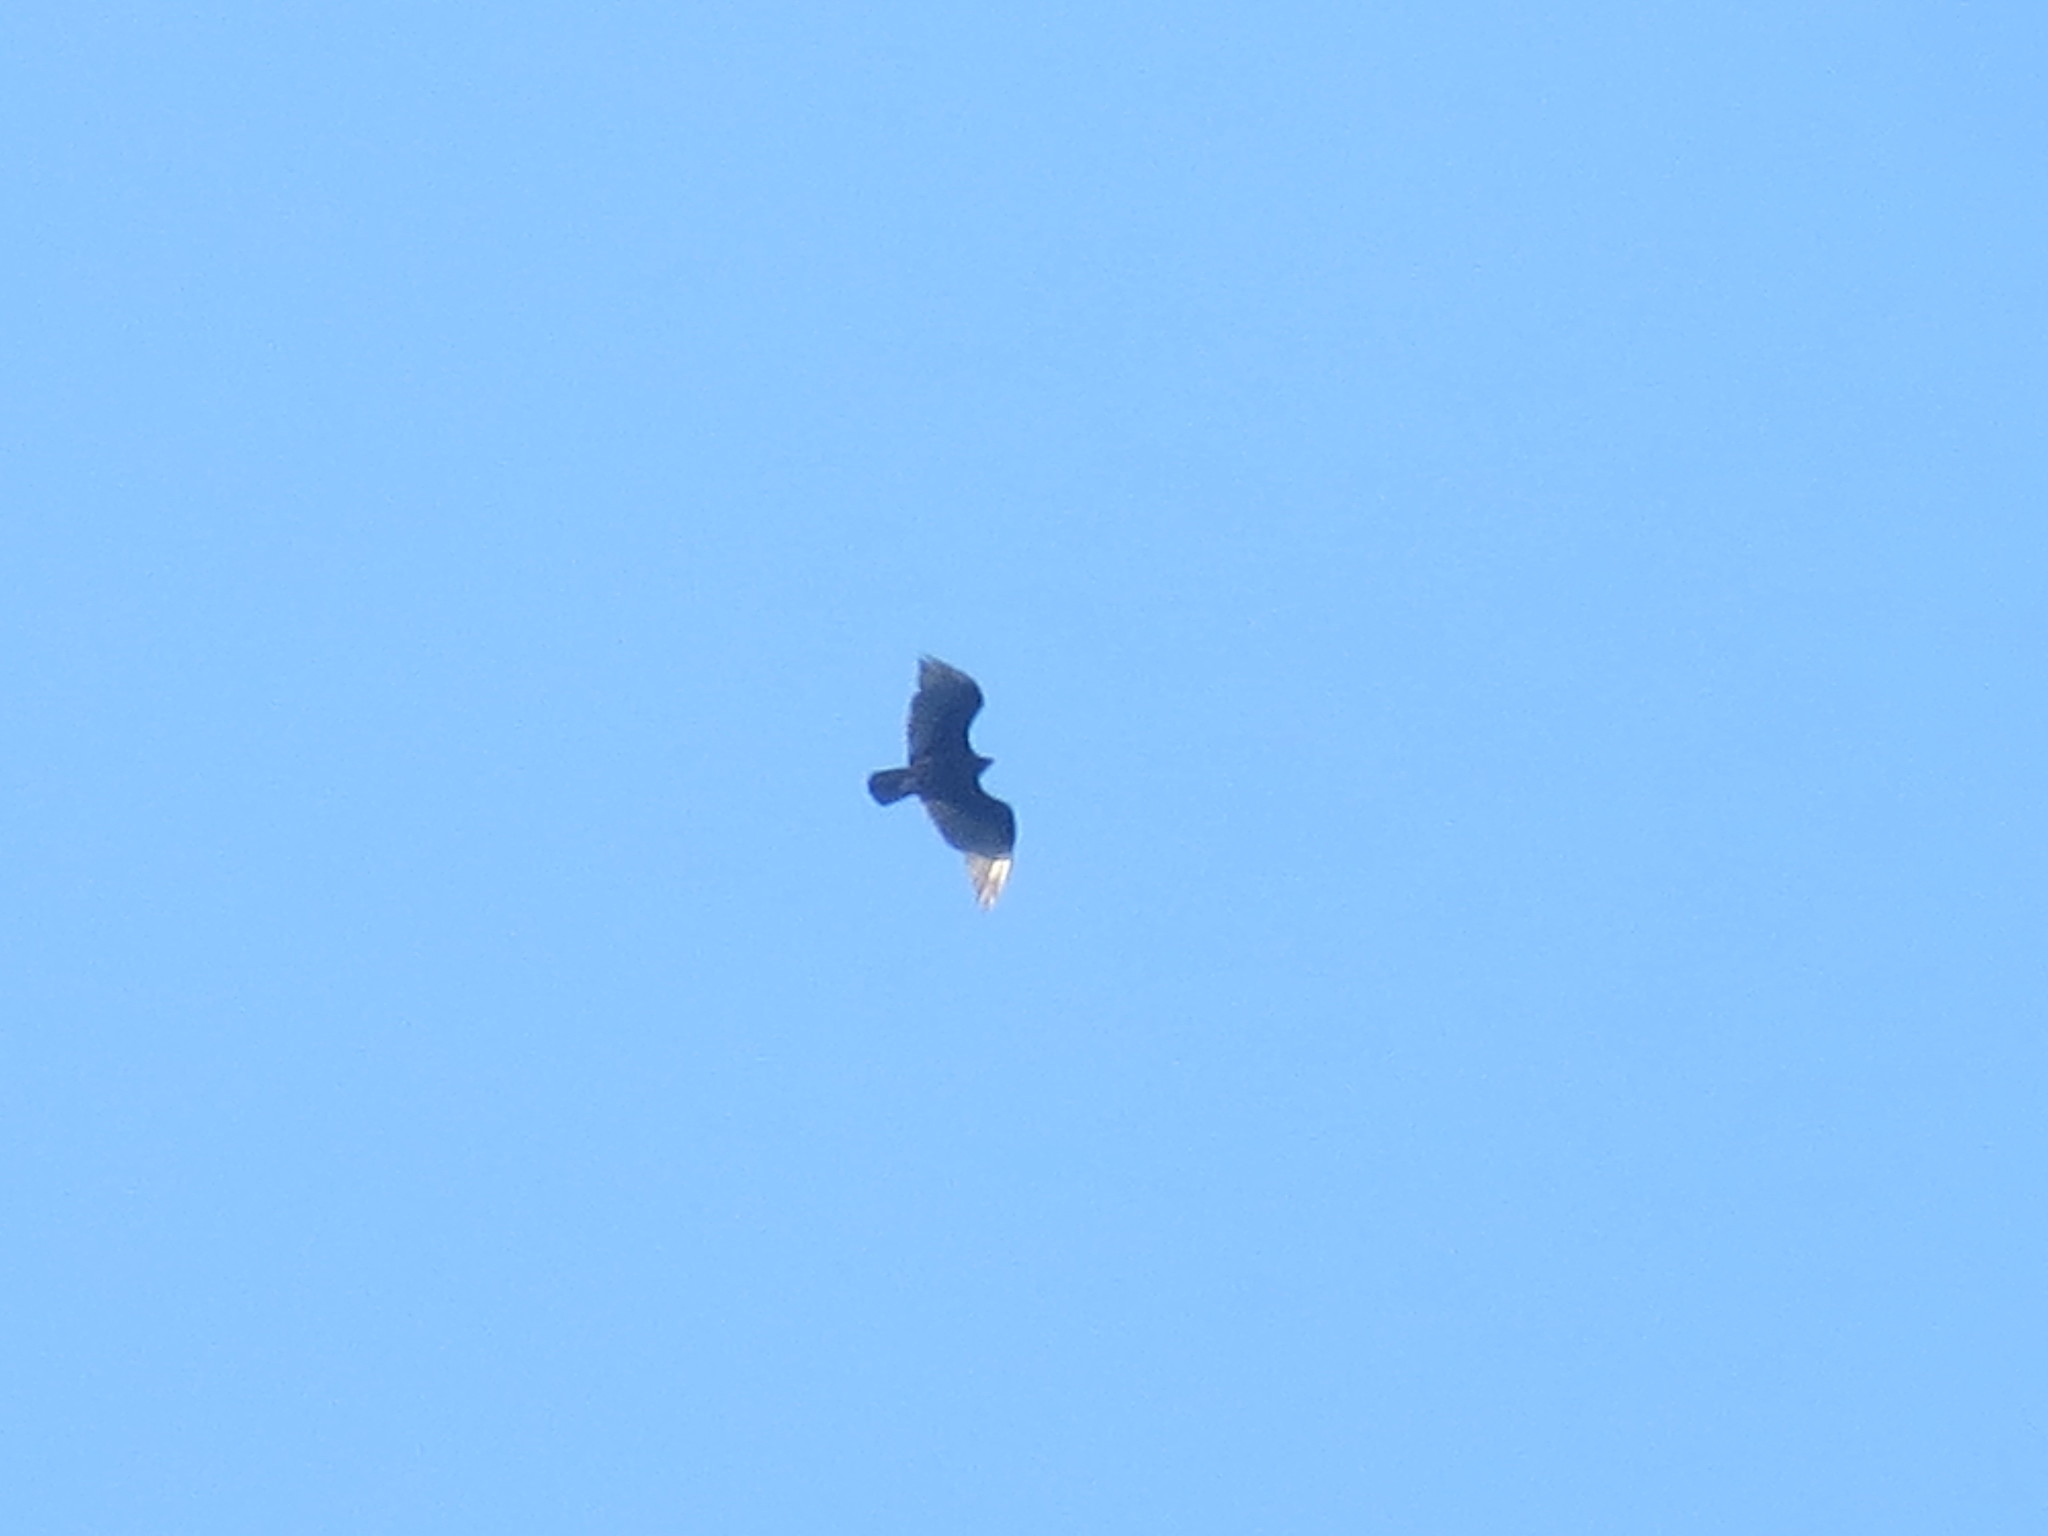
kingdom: Animalia
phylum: Chordata
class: Aves
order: Accipitriformes
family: Cathartidae
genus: Cathartes
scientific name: Cathartes aura
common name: Turkey vulture
